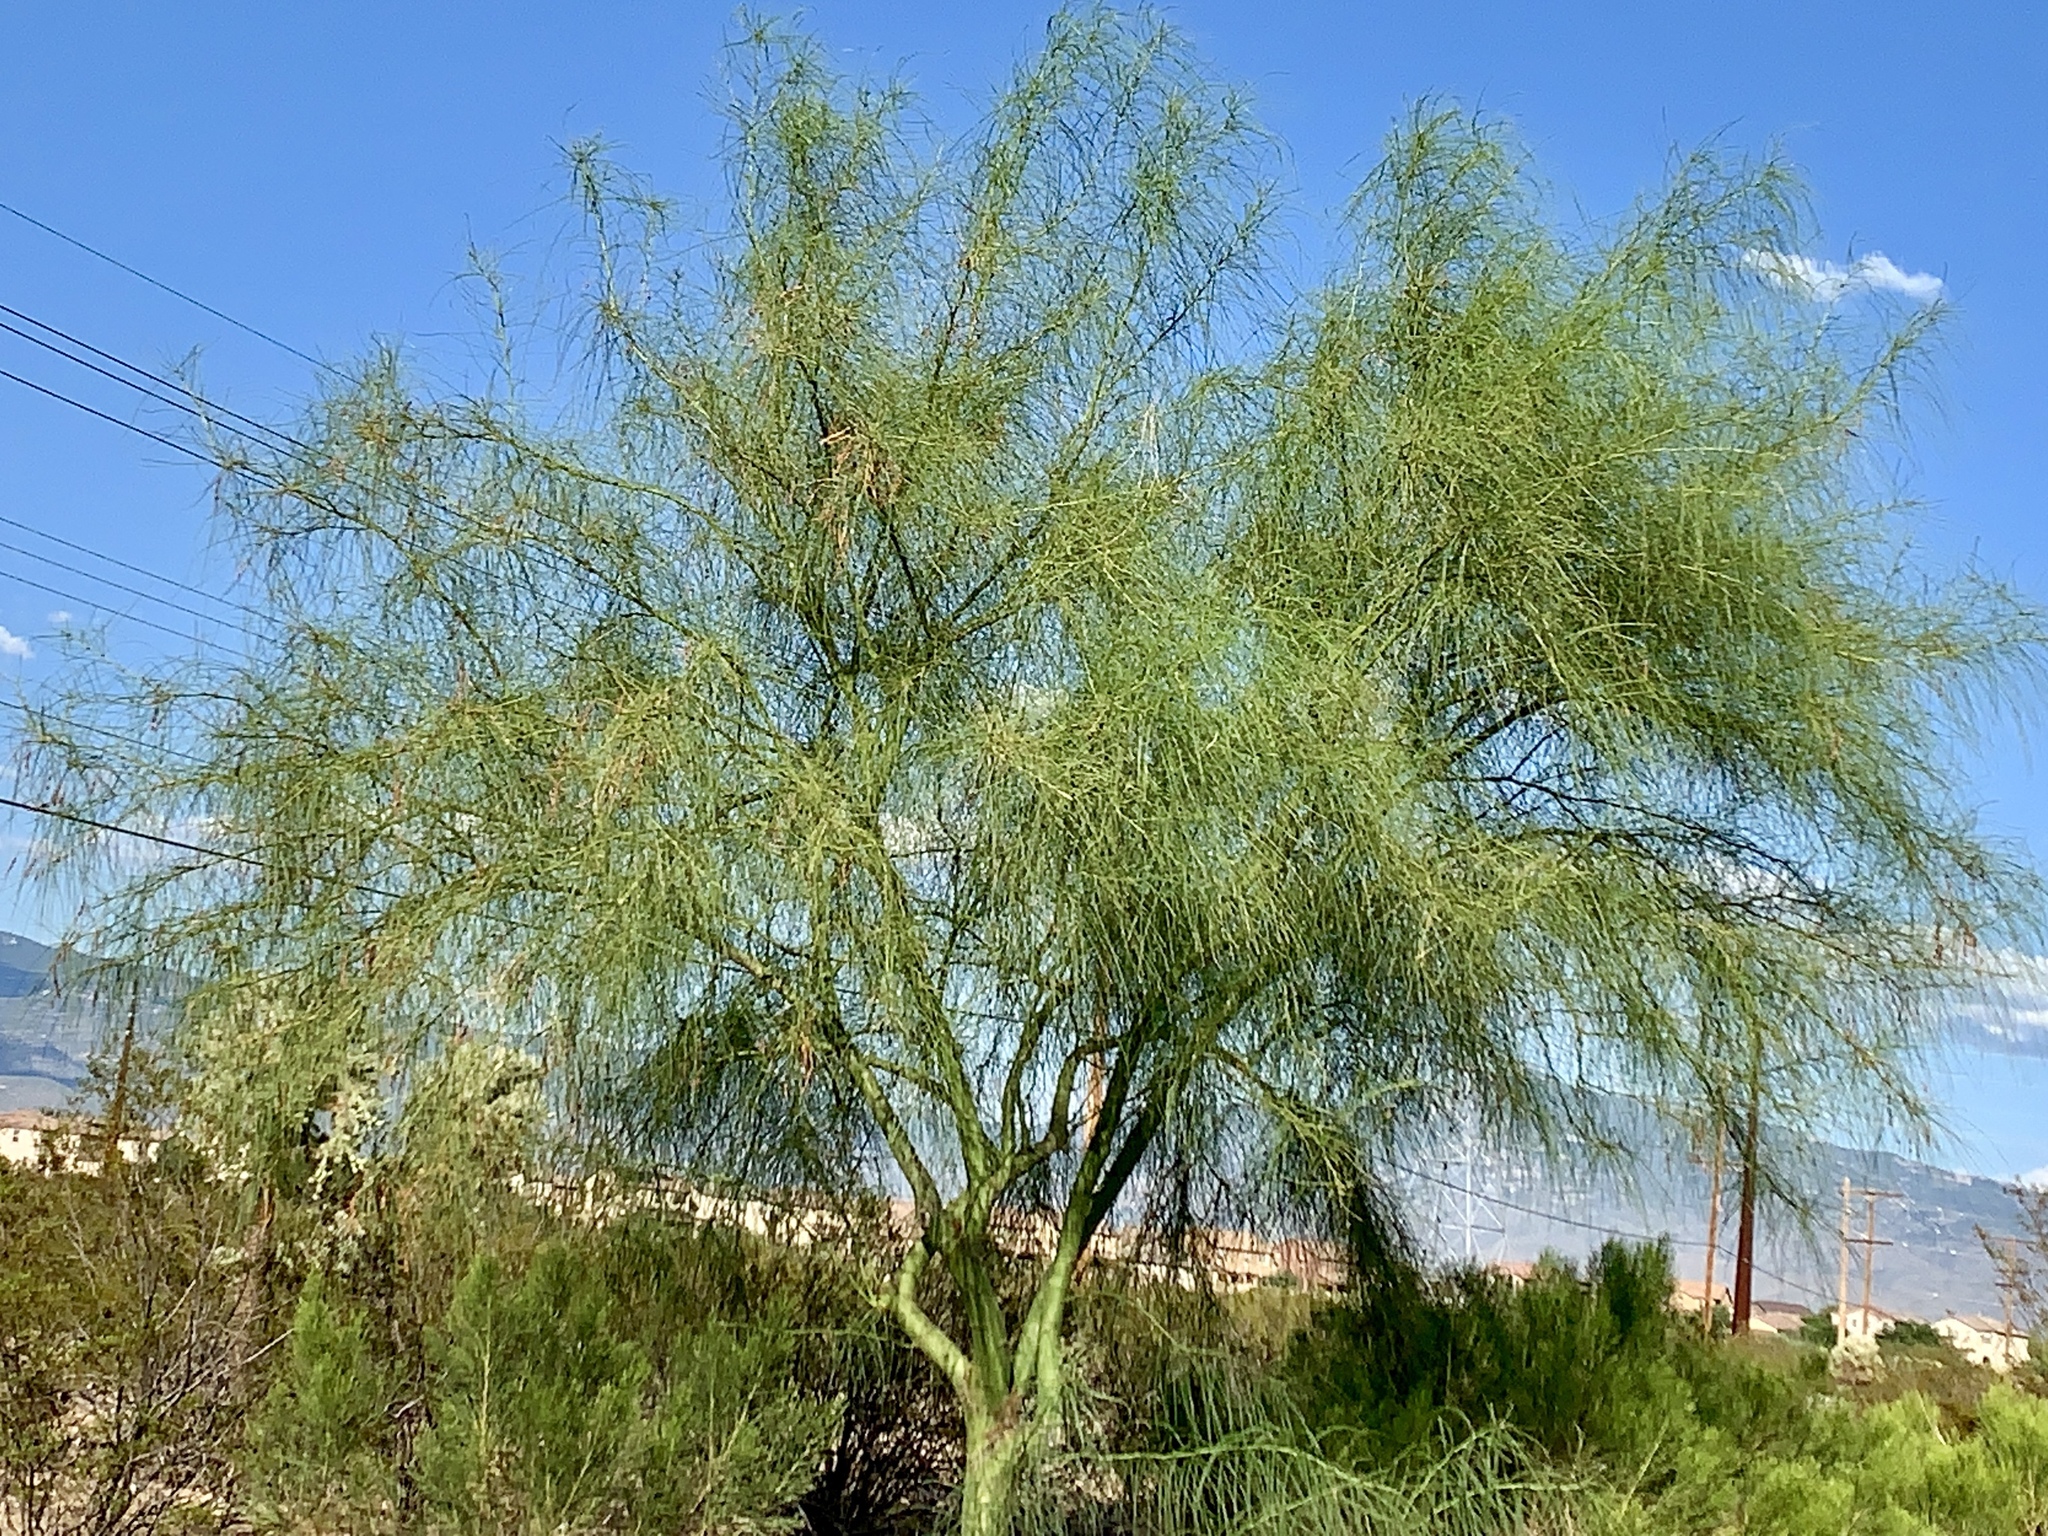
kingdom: Plantae
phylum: Tracheophyta
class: Magnoliopsida
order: Fabales
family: Fabaceae
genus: Parkinsonia
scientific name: Parkinsonia aculeata
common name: Jerusalem thorn
